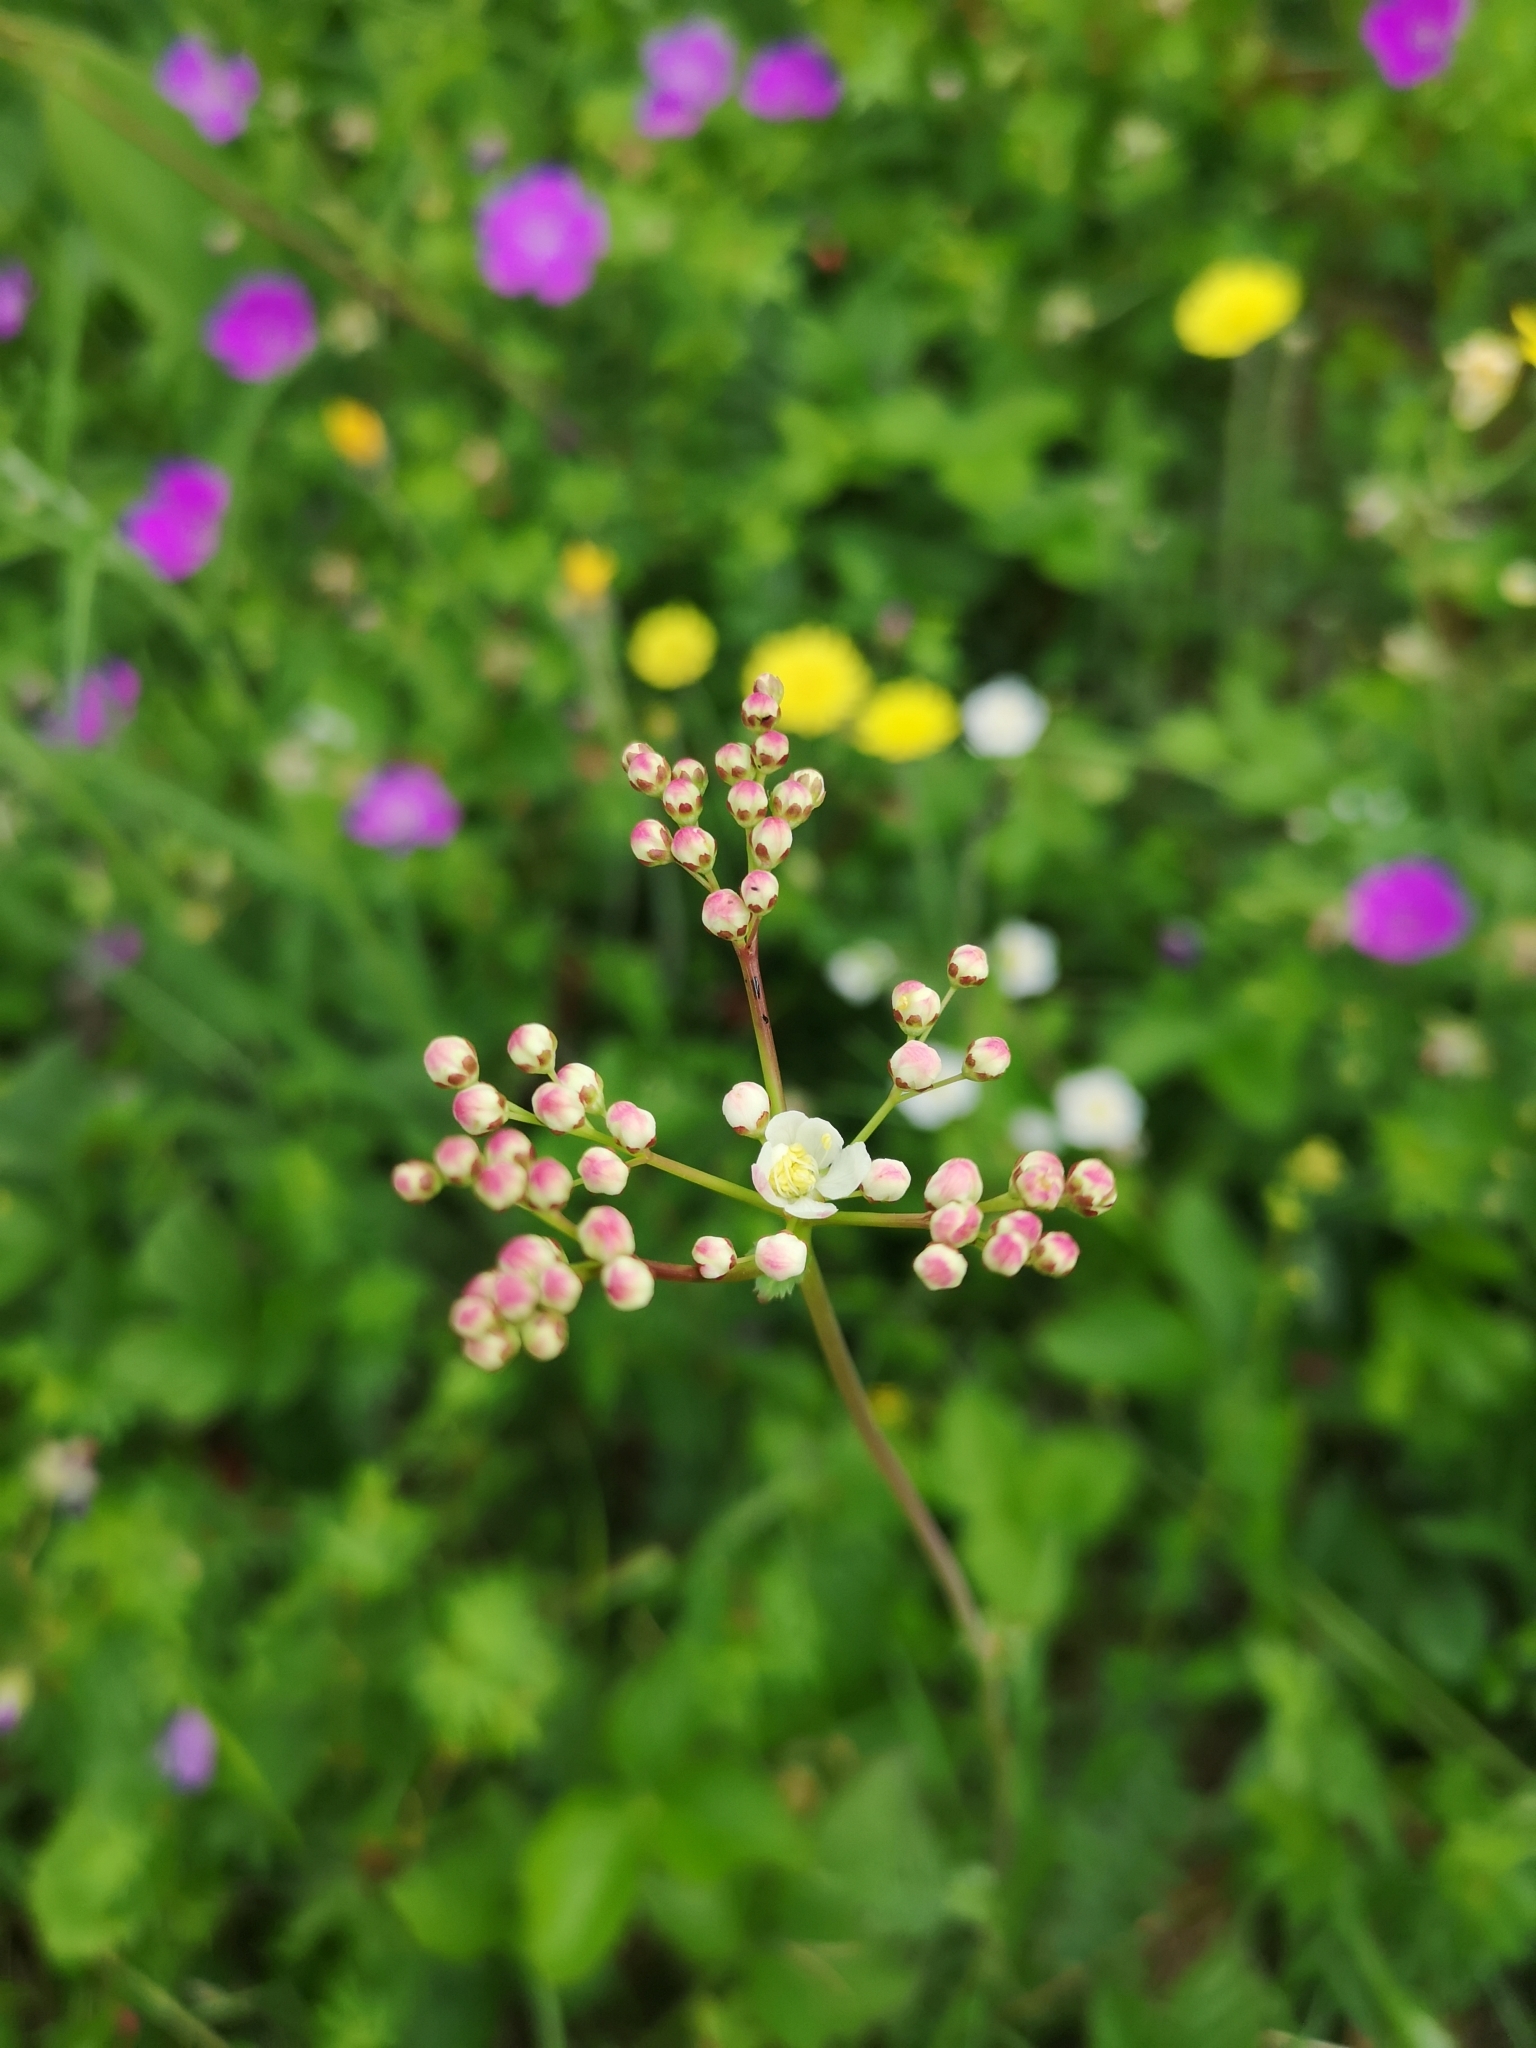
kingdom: Plantae
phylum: Tracheophyta
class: Magnoliopsida
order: Rosales
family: Rosaceae
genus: Filipendula
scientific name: Filipendula vulgaris
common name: Dropwort
